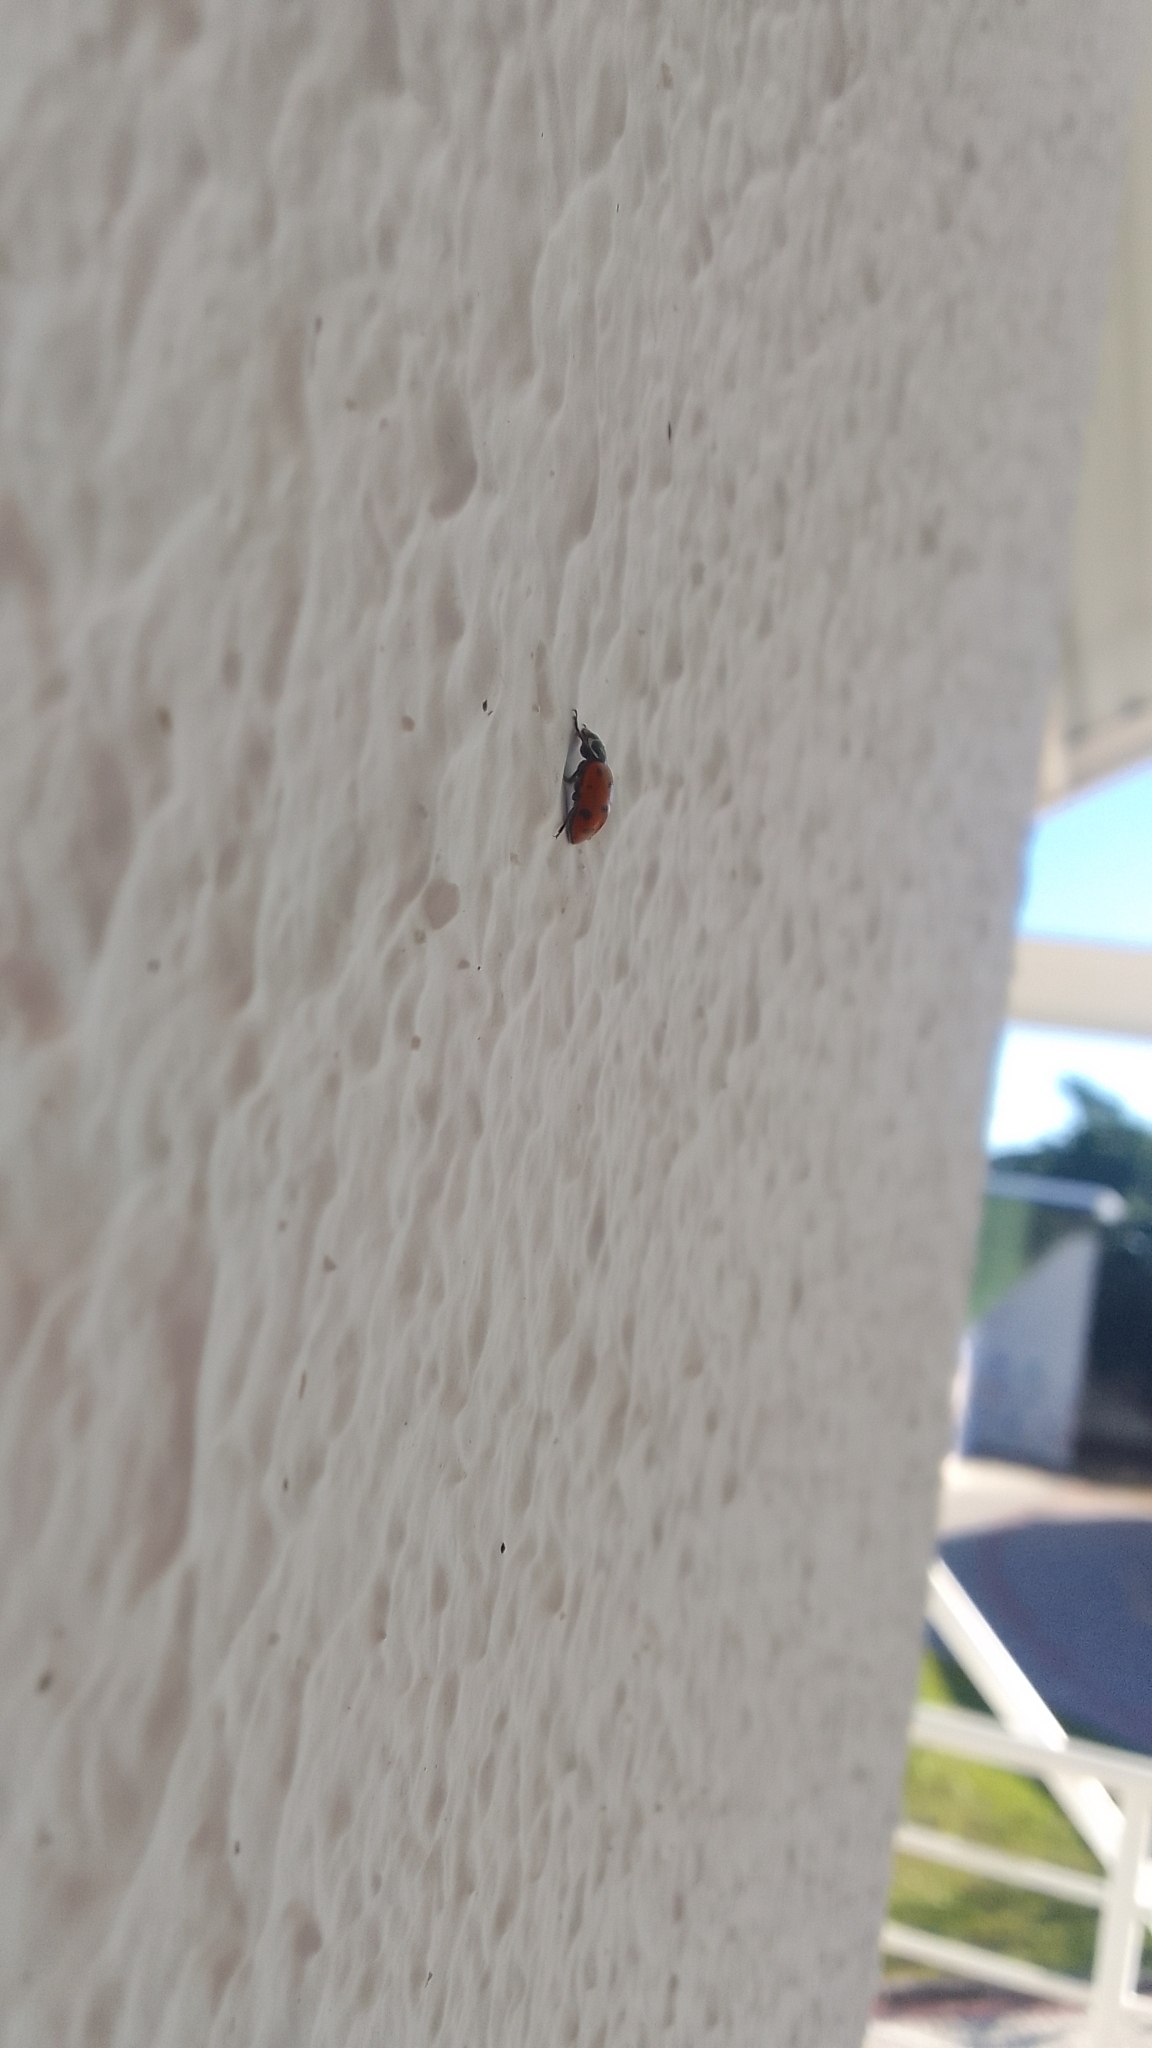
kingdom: Animalia
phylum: Arthropoda
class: Insecta
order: Coleoptera
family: Coccinellidae
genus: Hippodamia
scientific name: Hippodamia convergens
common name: Convergent lady beetle
